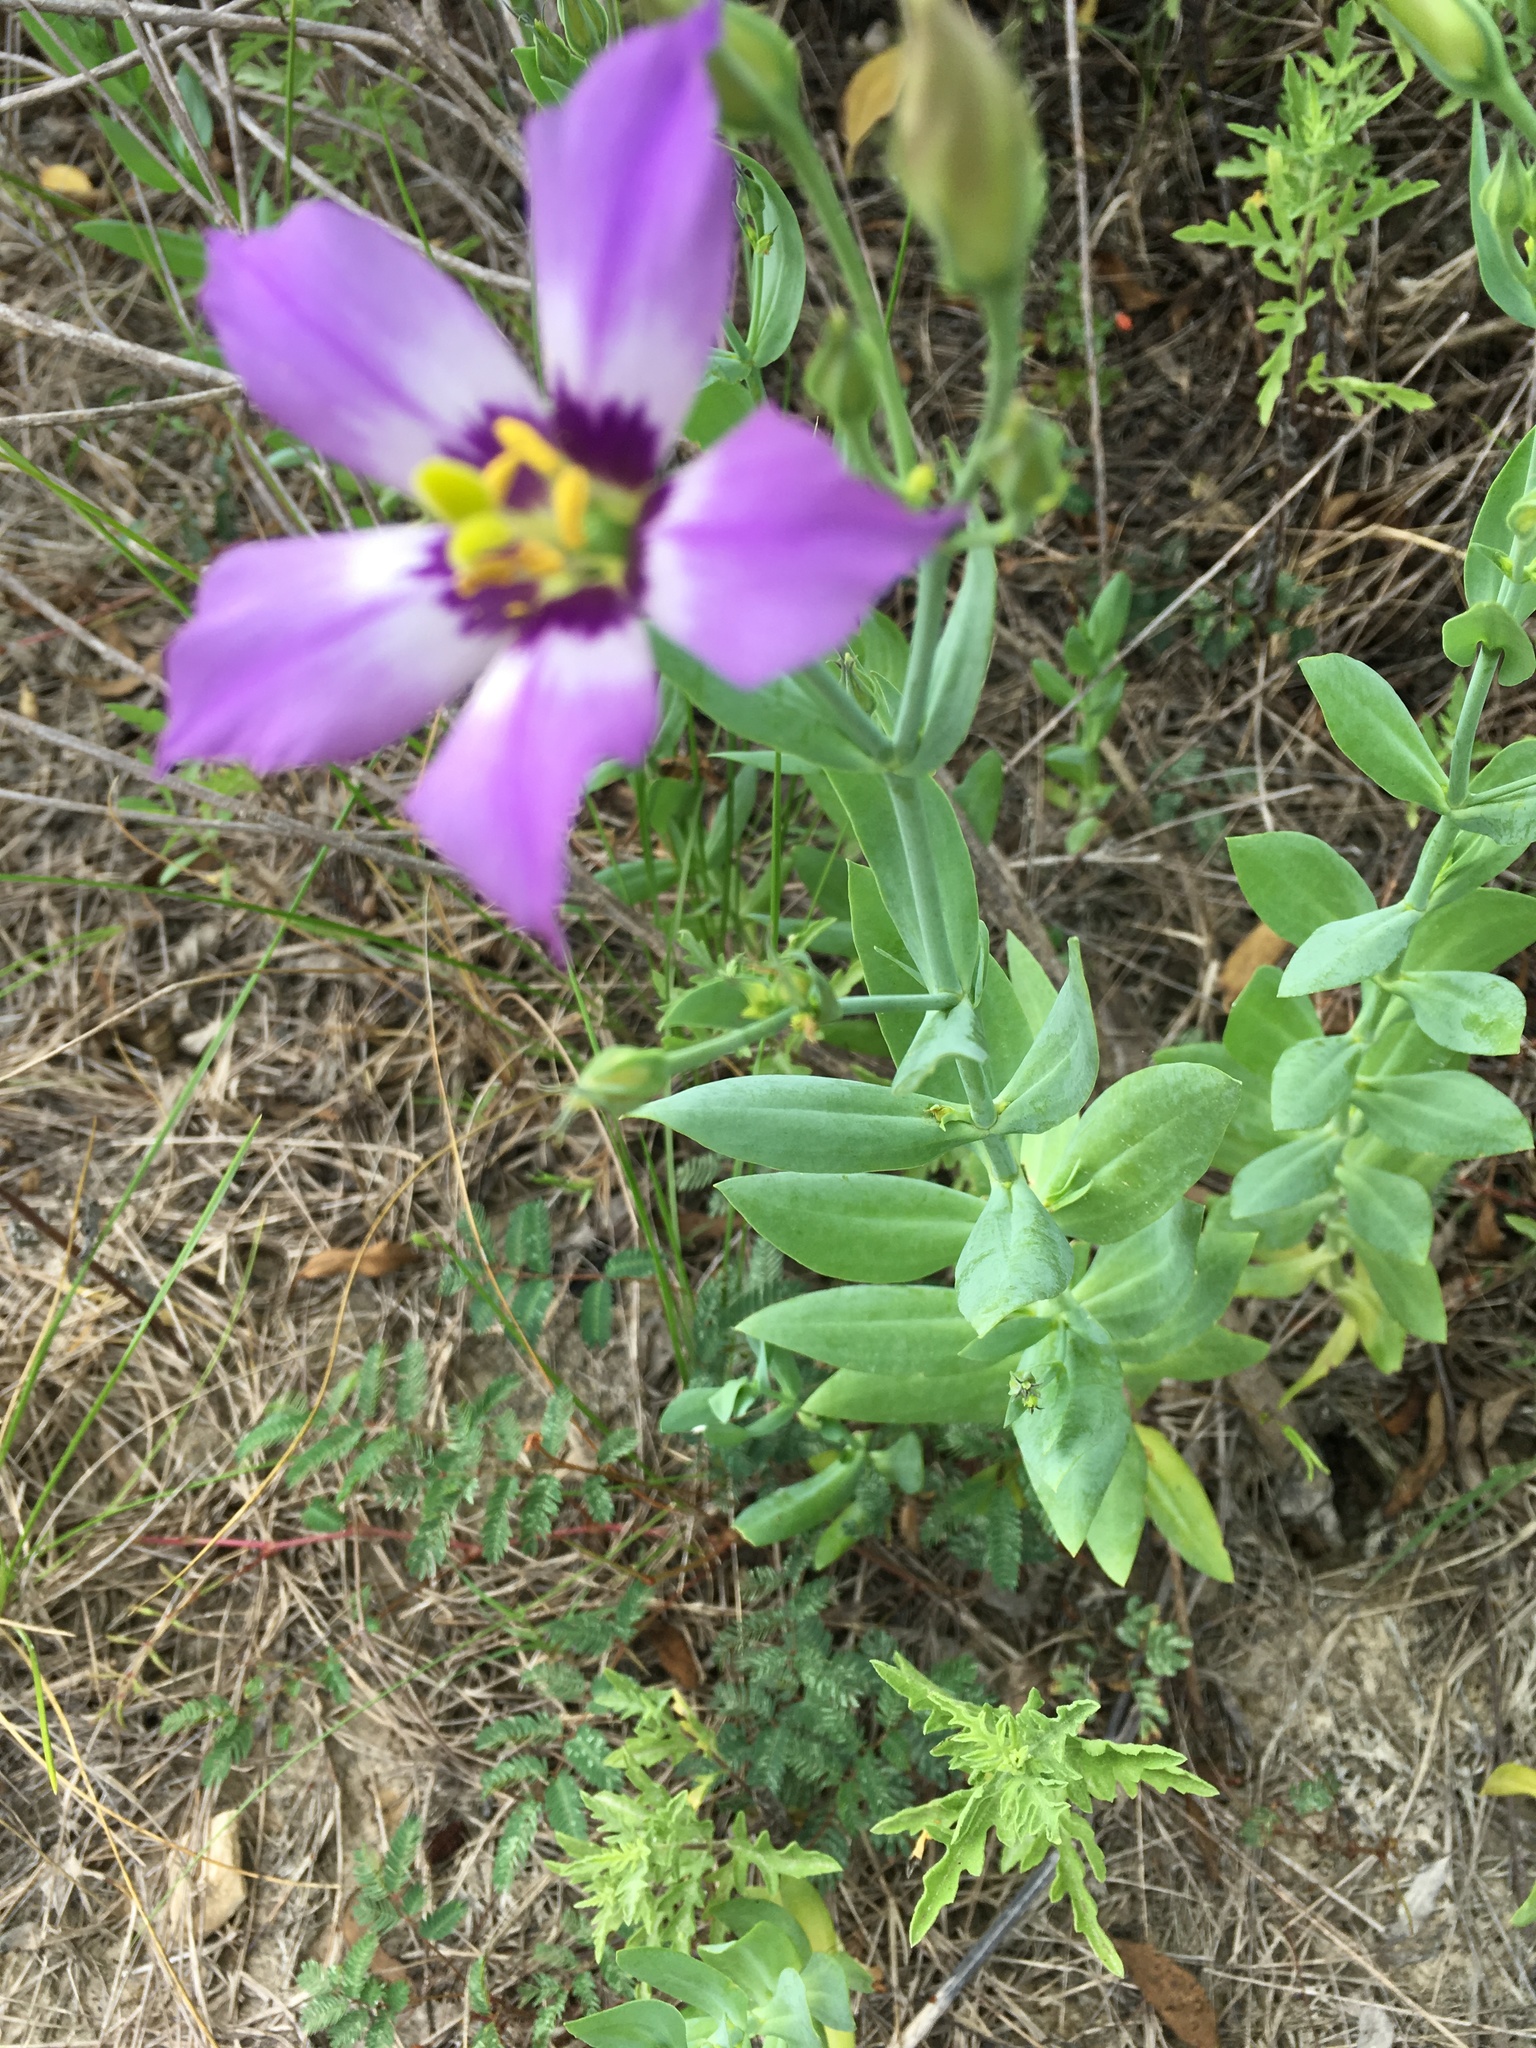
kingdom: Plantae
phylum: Tracheophyta
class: Magnoliopsida
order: Gentianales
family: Gentianaceae
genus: Eustoma
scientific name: Eustoma exaltatum
